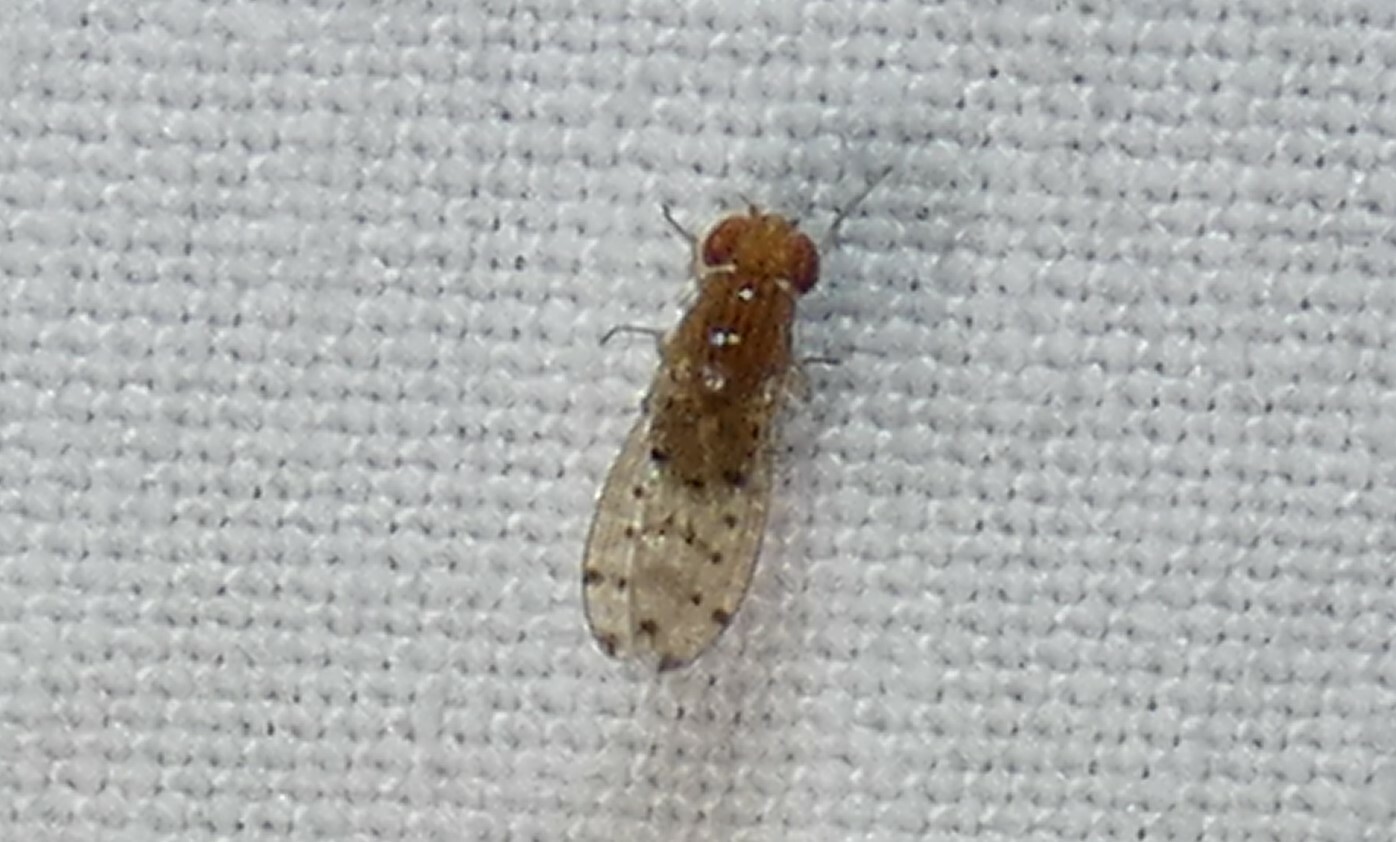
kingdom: Animalia
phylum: Arthropoda
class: Insecta
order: Diptera
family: Drosophilidae
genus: Drosophila
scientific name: Drosophila guttifera
